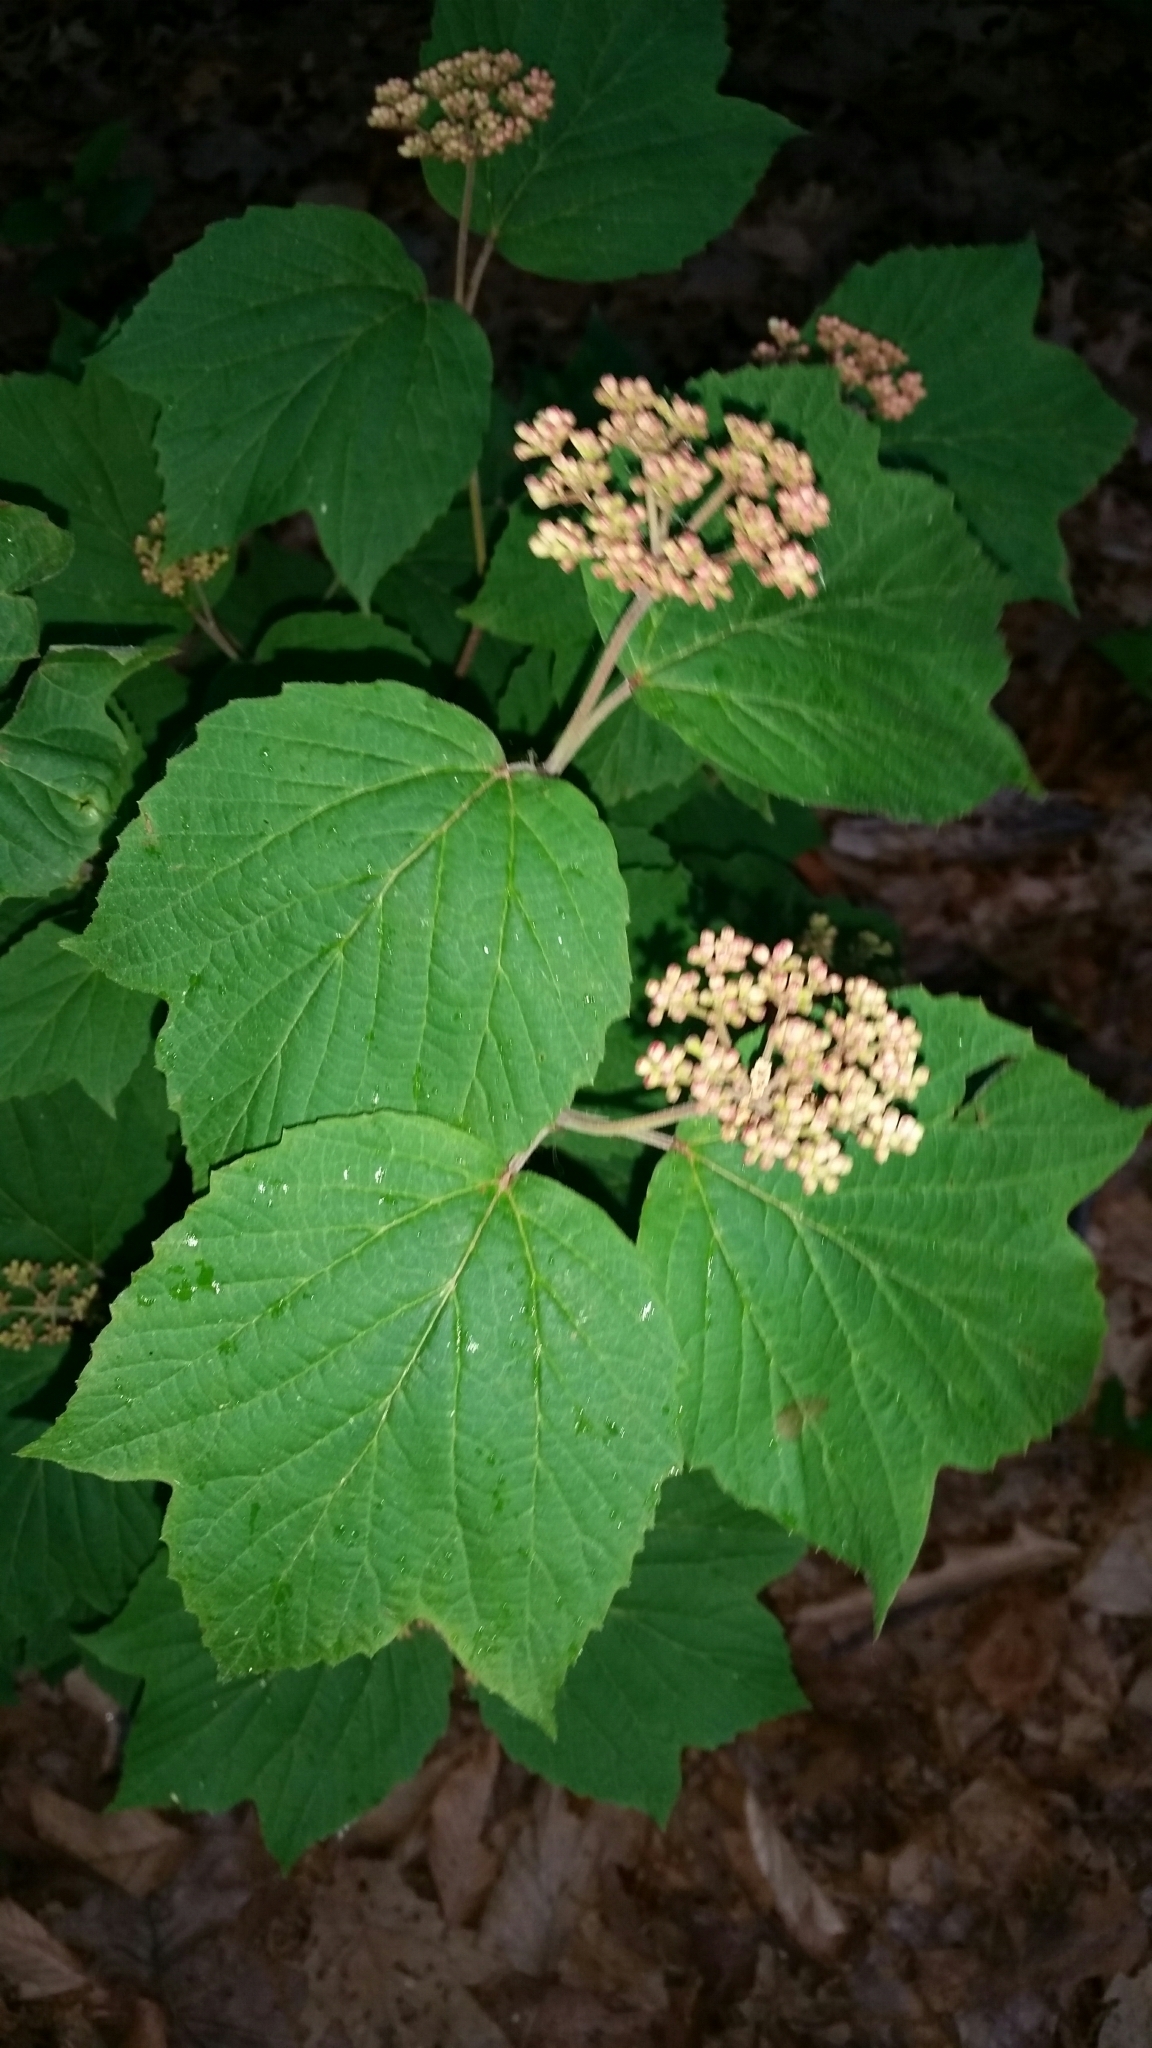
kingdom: Plantae
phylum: Tracheophyta
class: Magnoliopsida
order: Dipsacales
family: Viburnaceae
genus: Viburnum
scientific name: Viburnum acerifolium
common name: Dockmackie
